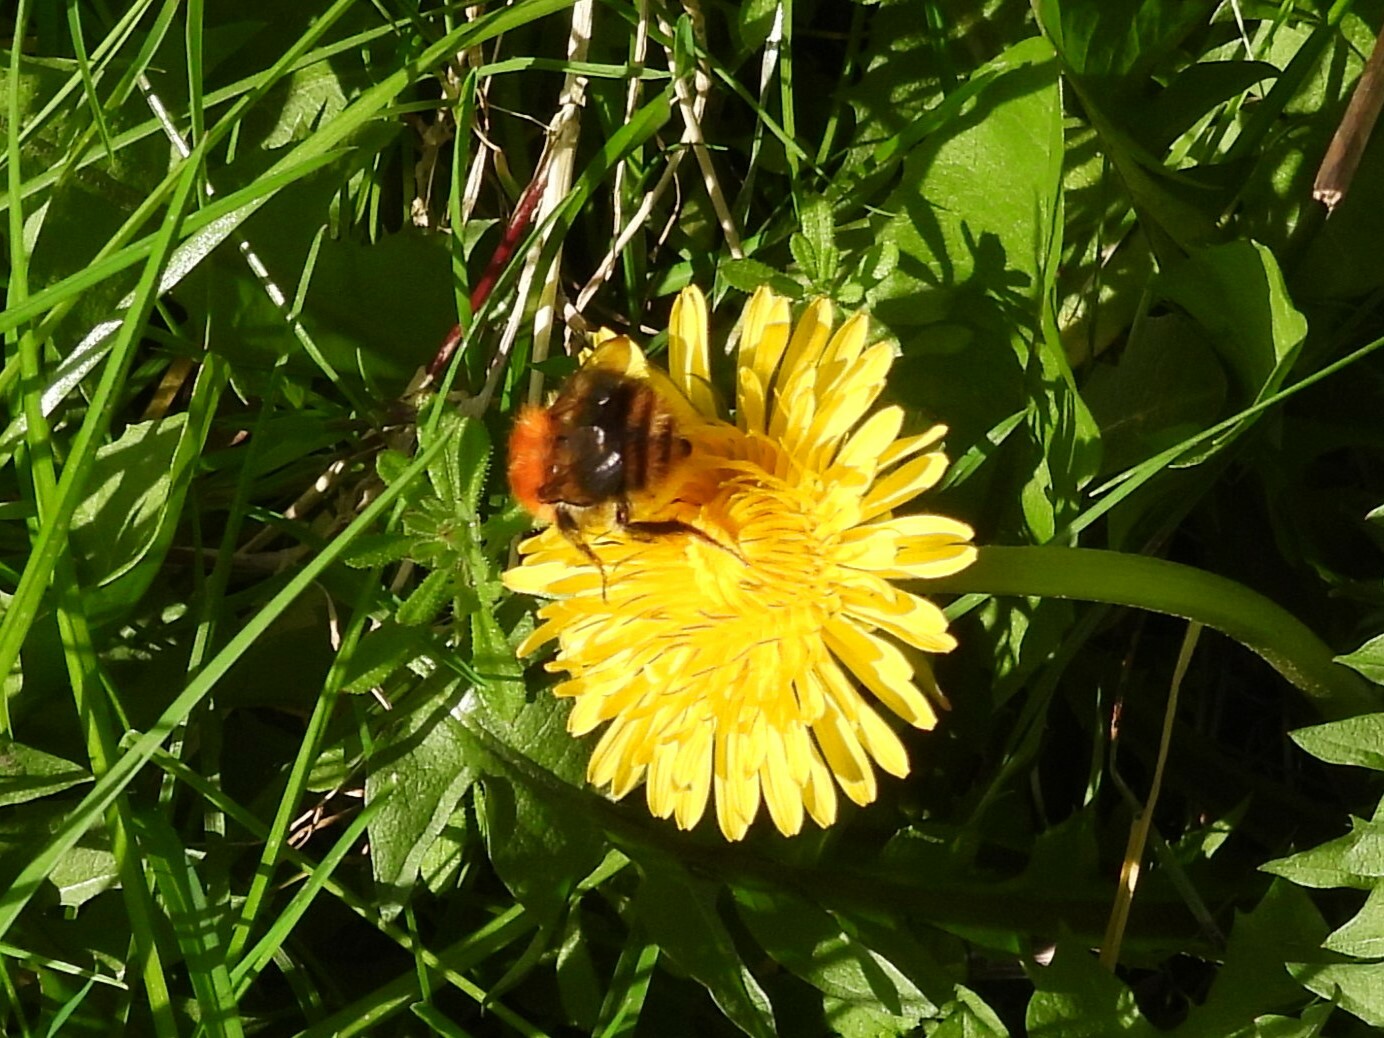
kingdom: Animalia
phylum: Arthropoda
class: Insecta
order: Hymenoptera
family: Apidae
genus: Bombus
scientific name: Bombus pascuorum
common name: Common carder bee
